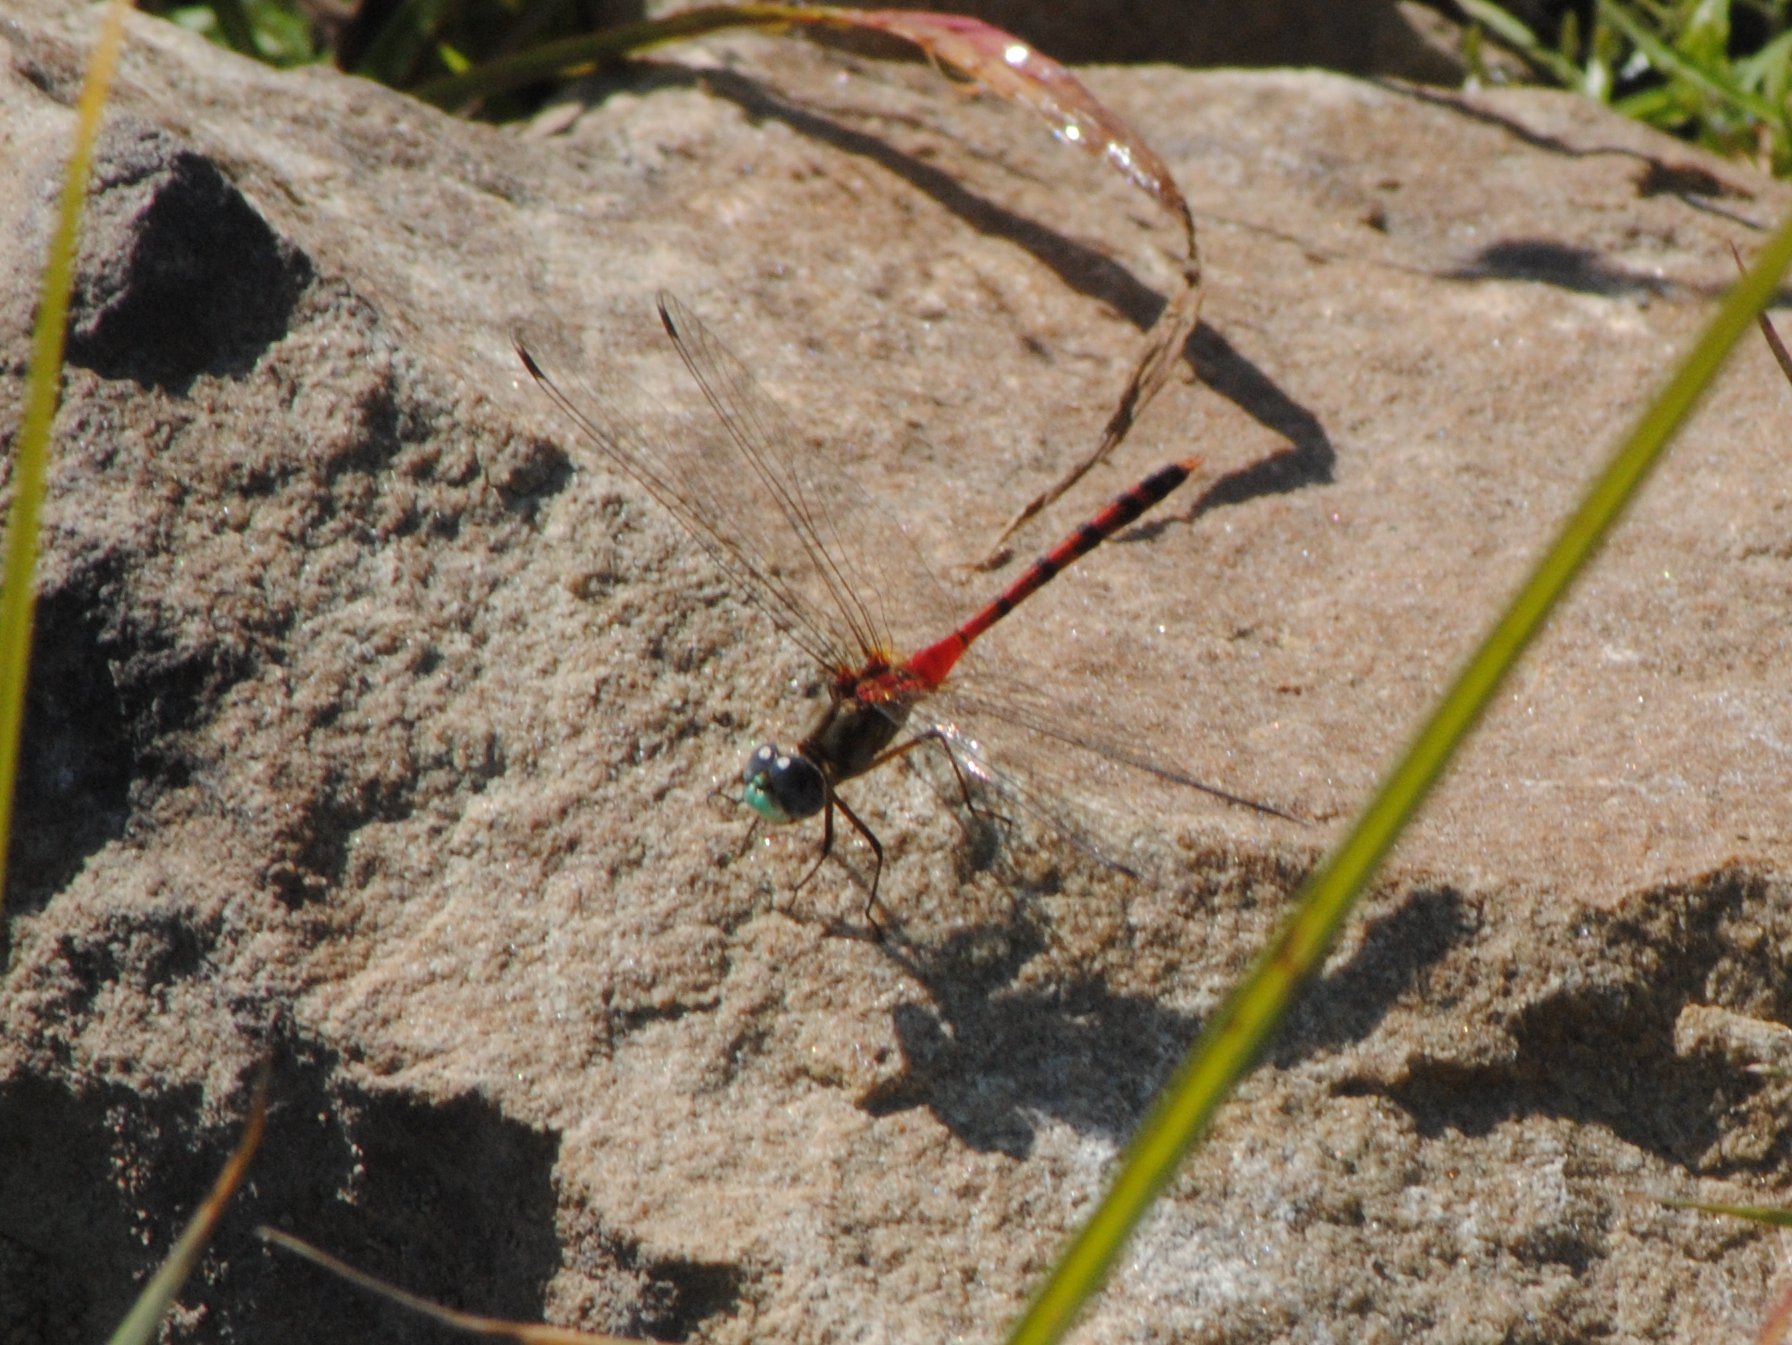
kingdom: Animalia
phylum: Arthropoda
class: Insecta
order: Odonata
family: Libellulidae
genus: Sympetrum
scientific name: Sympetrum ambiguum
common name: Blue-faced meadowhawk
